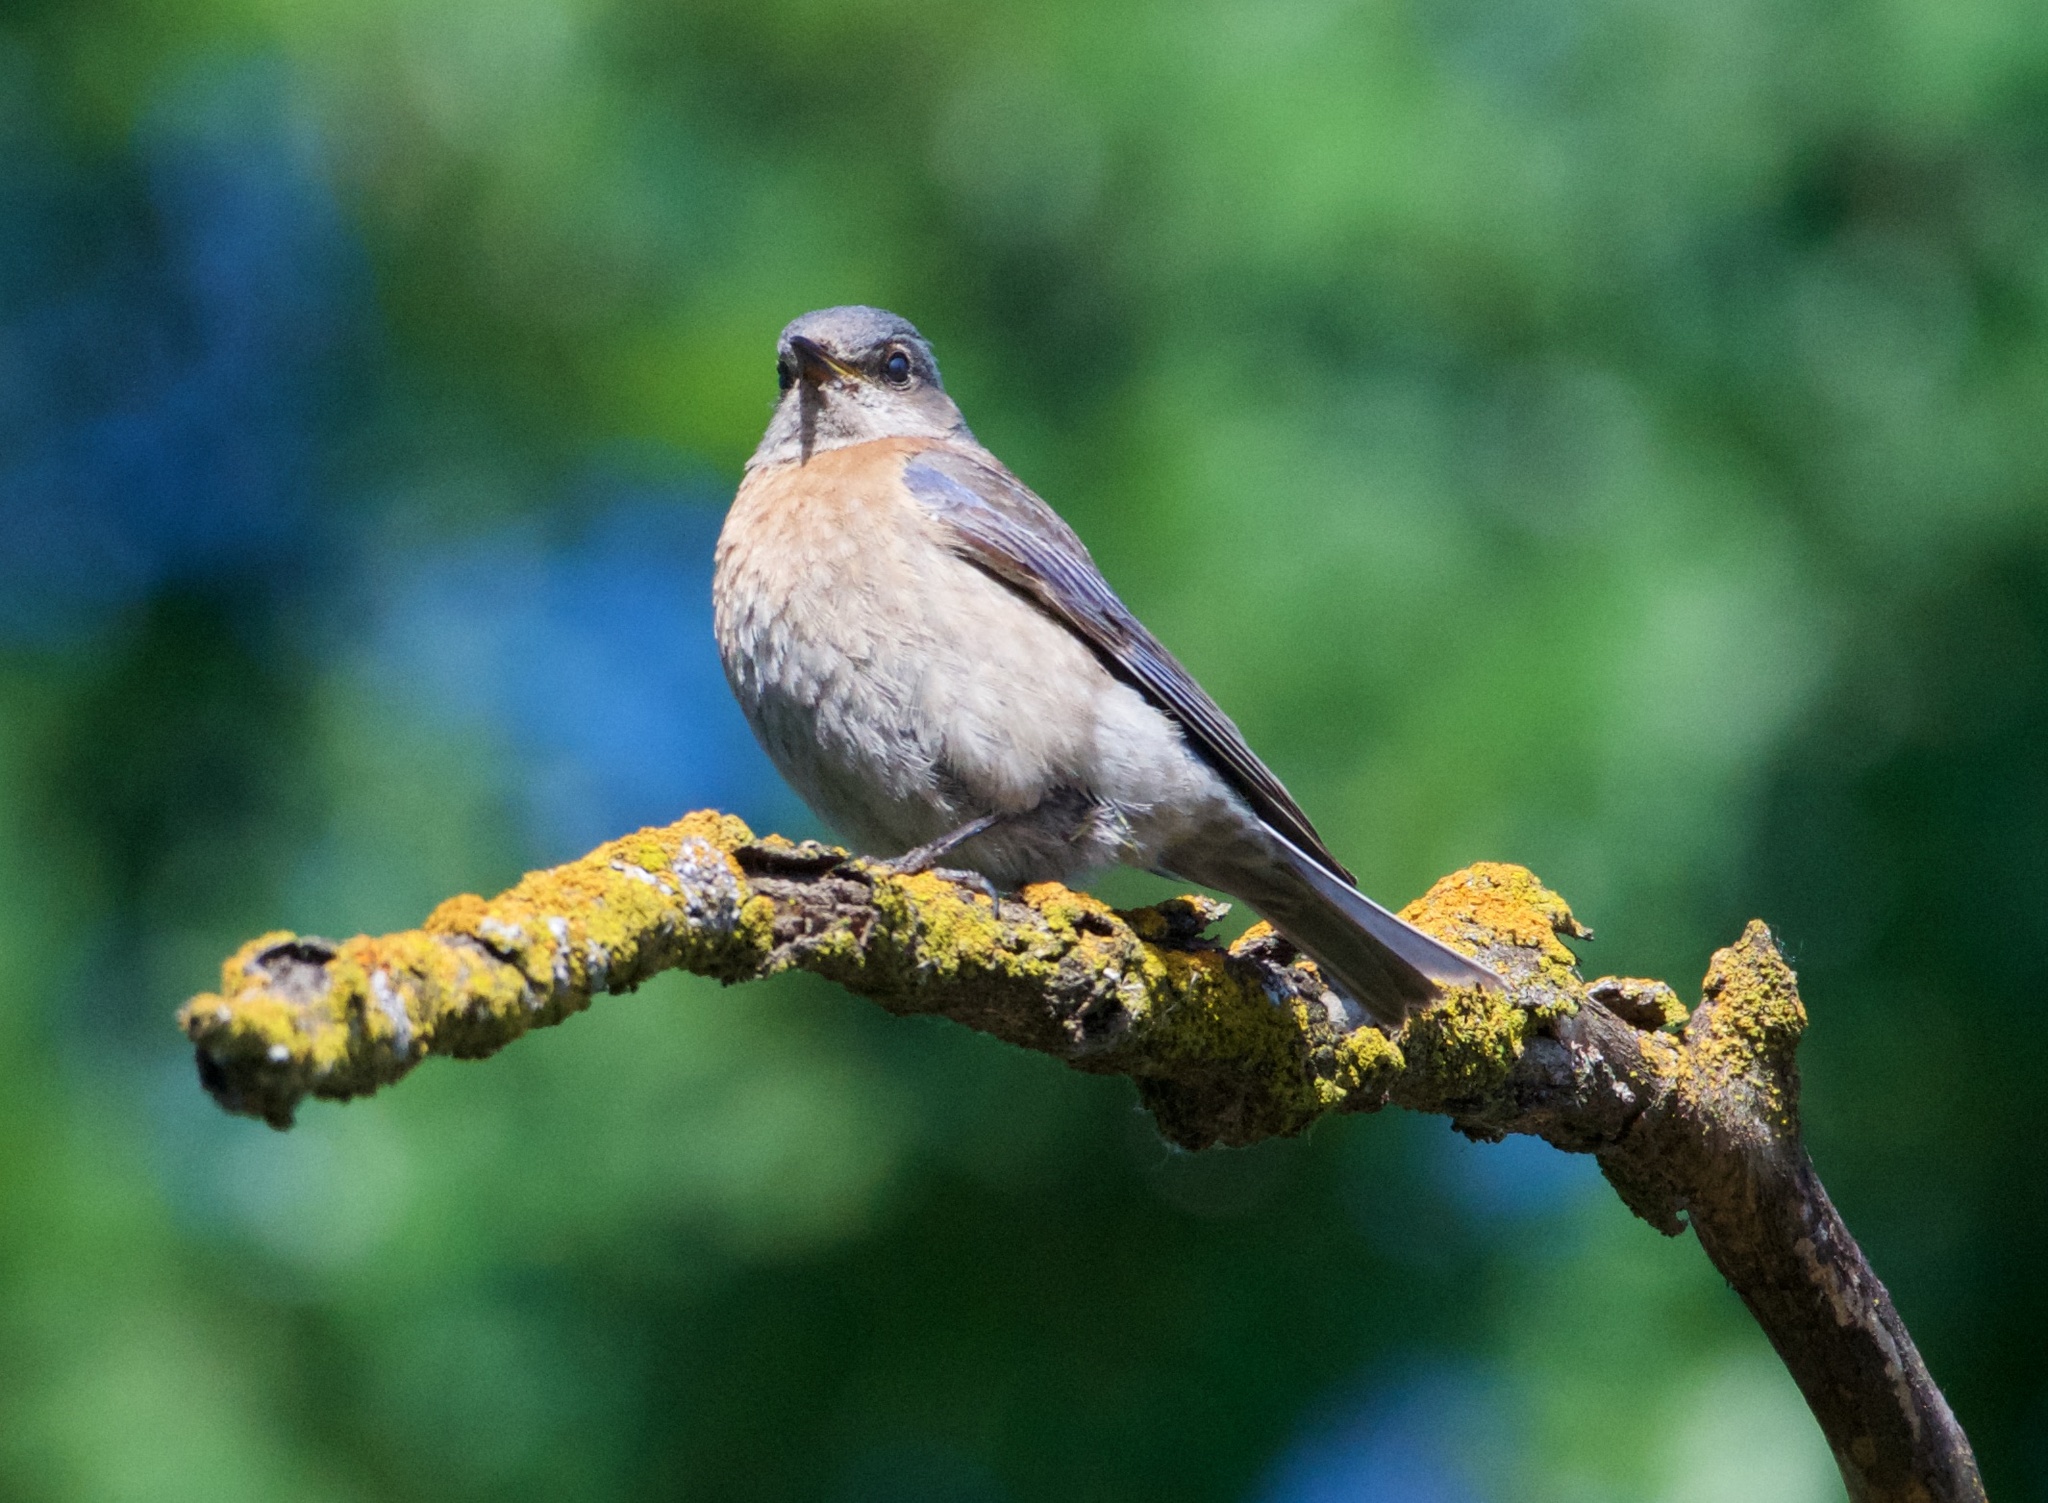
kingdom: Animalia
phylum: Chordata
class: Aves
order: Passeriformes
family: Turdidae
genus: Sialia
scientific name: Sialia mexicana
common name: Western bluebird
